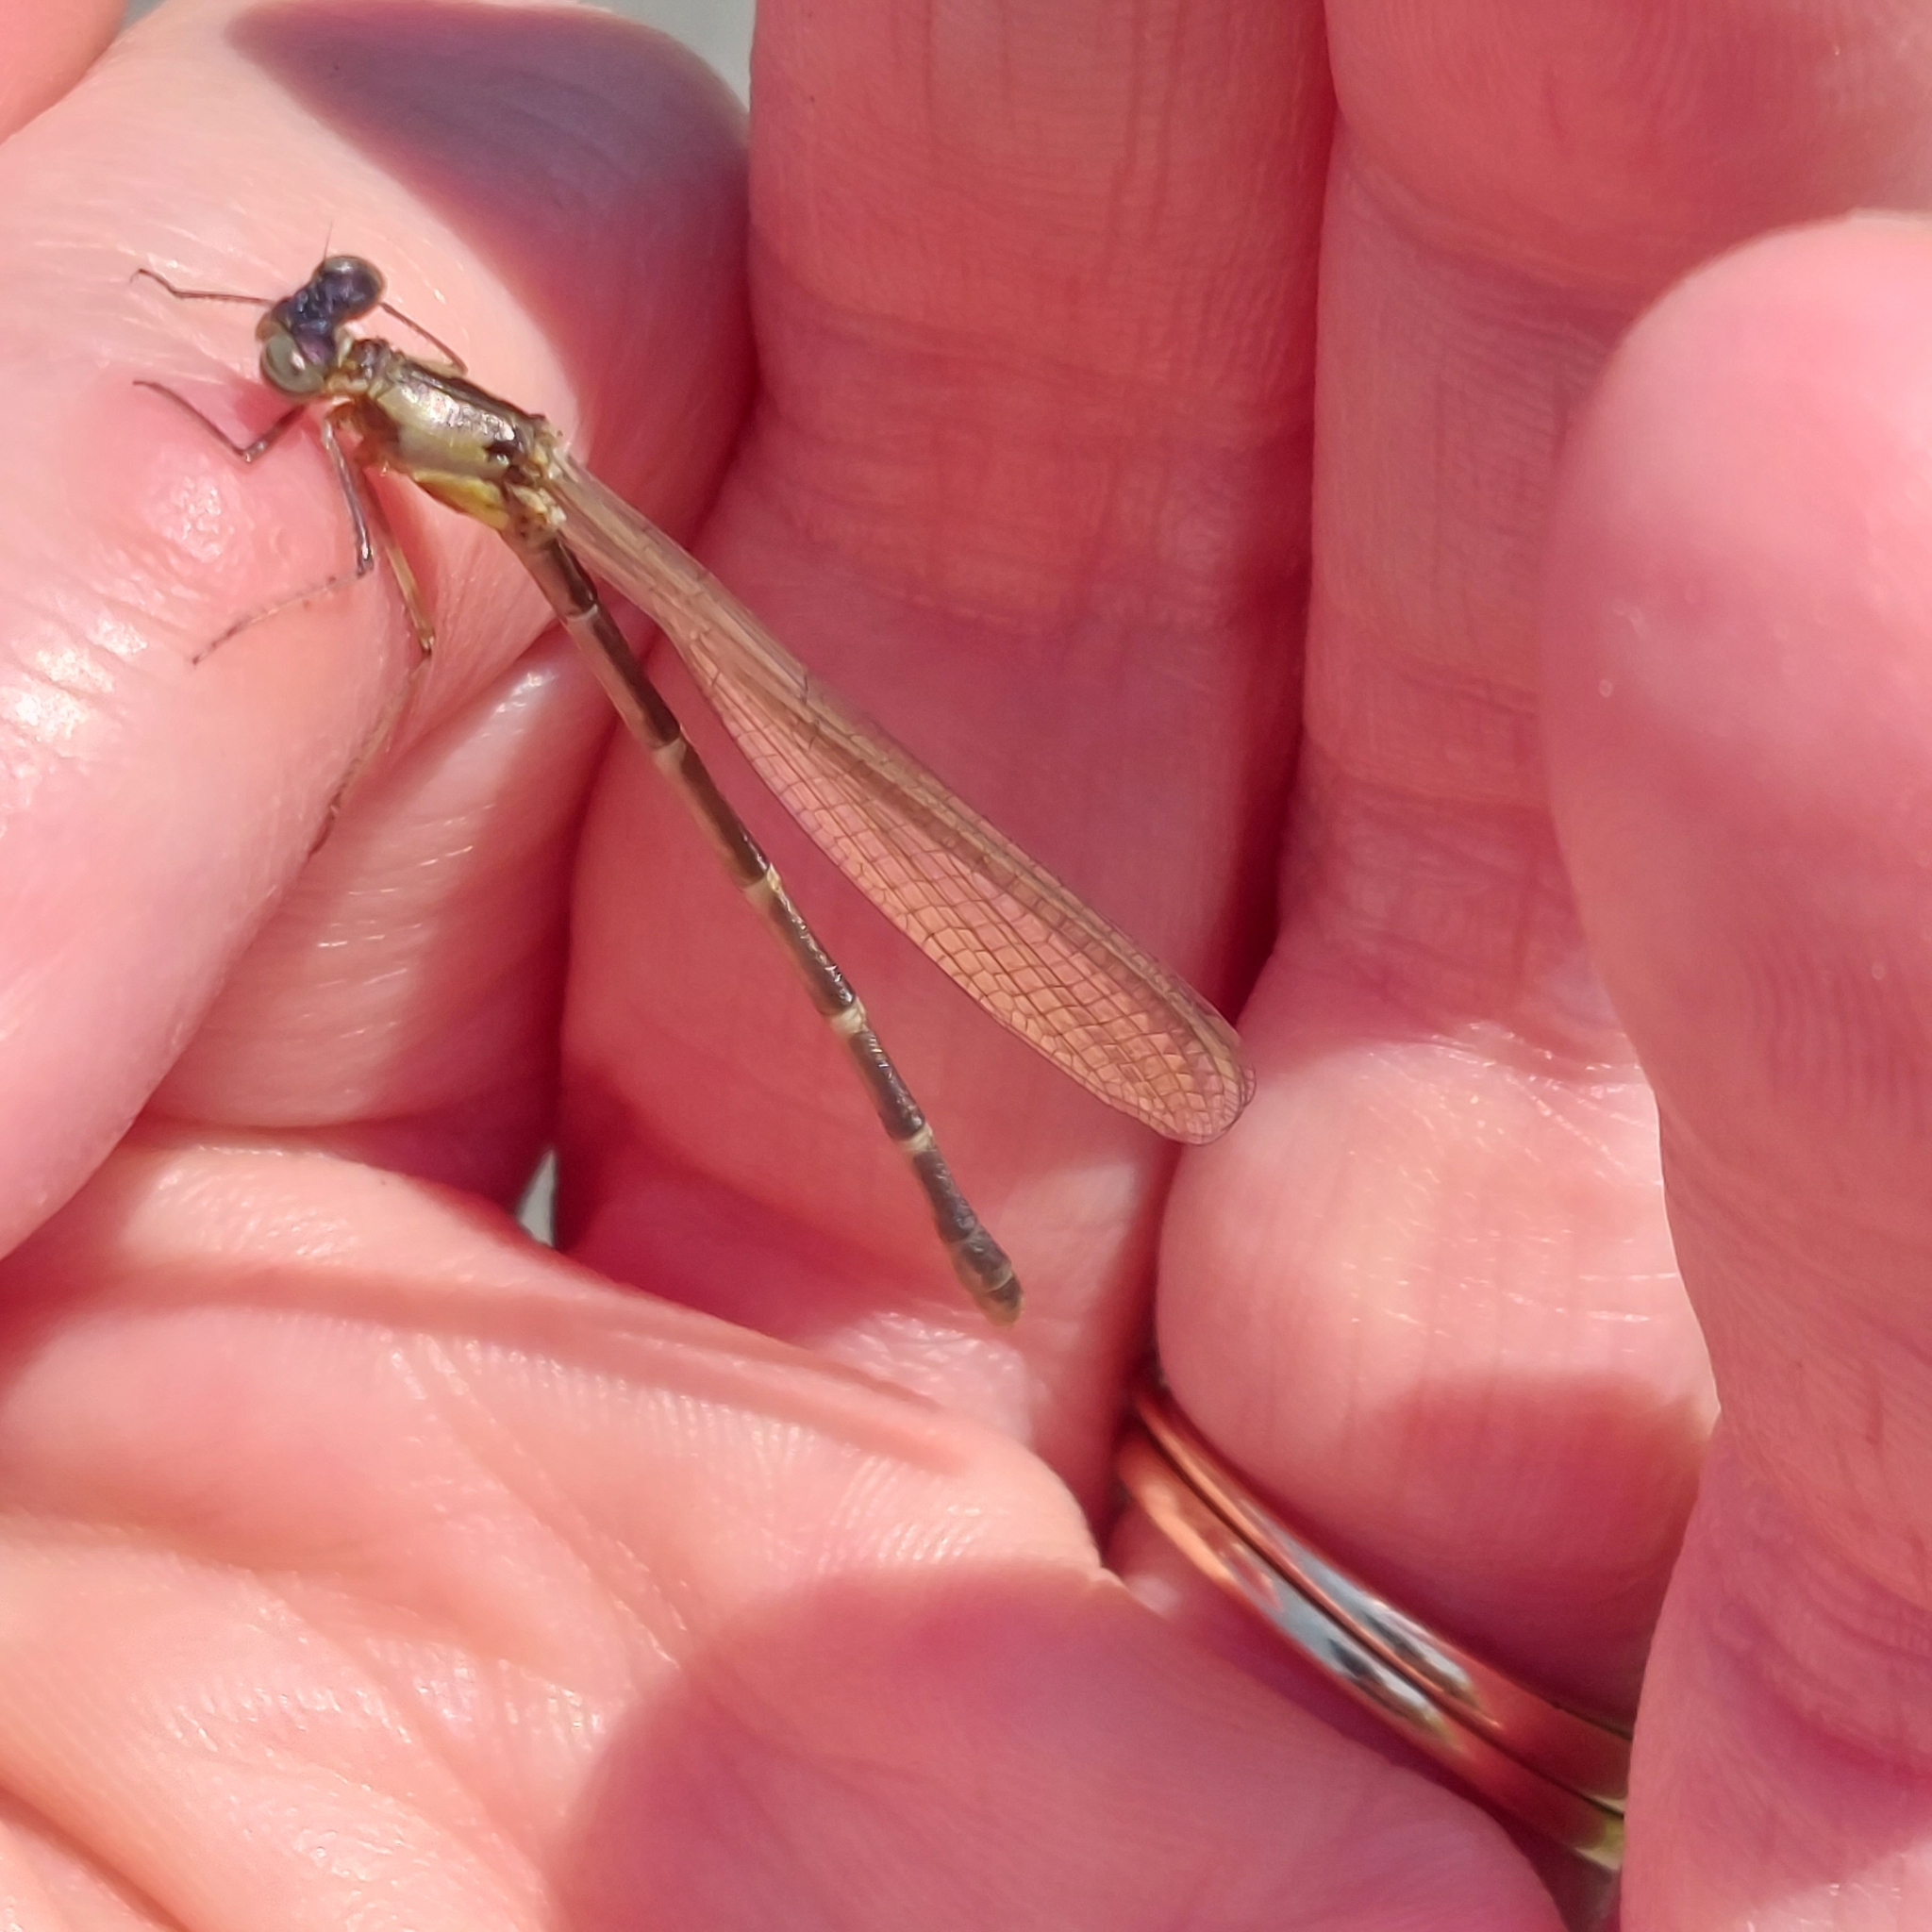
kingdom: Animalia
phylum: Arthropoda
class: Insecta
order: Odonata
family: Coenagrionidae
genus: Chromagrion
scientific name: Chromagrion conditum
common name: Aurora damsel
